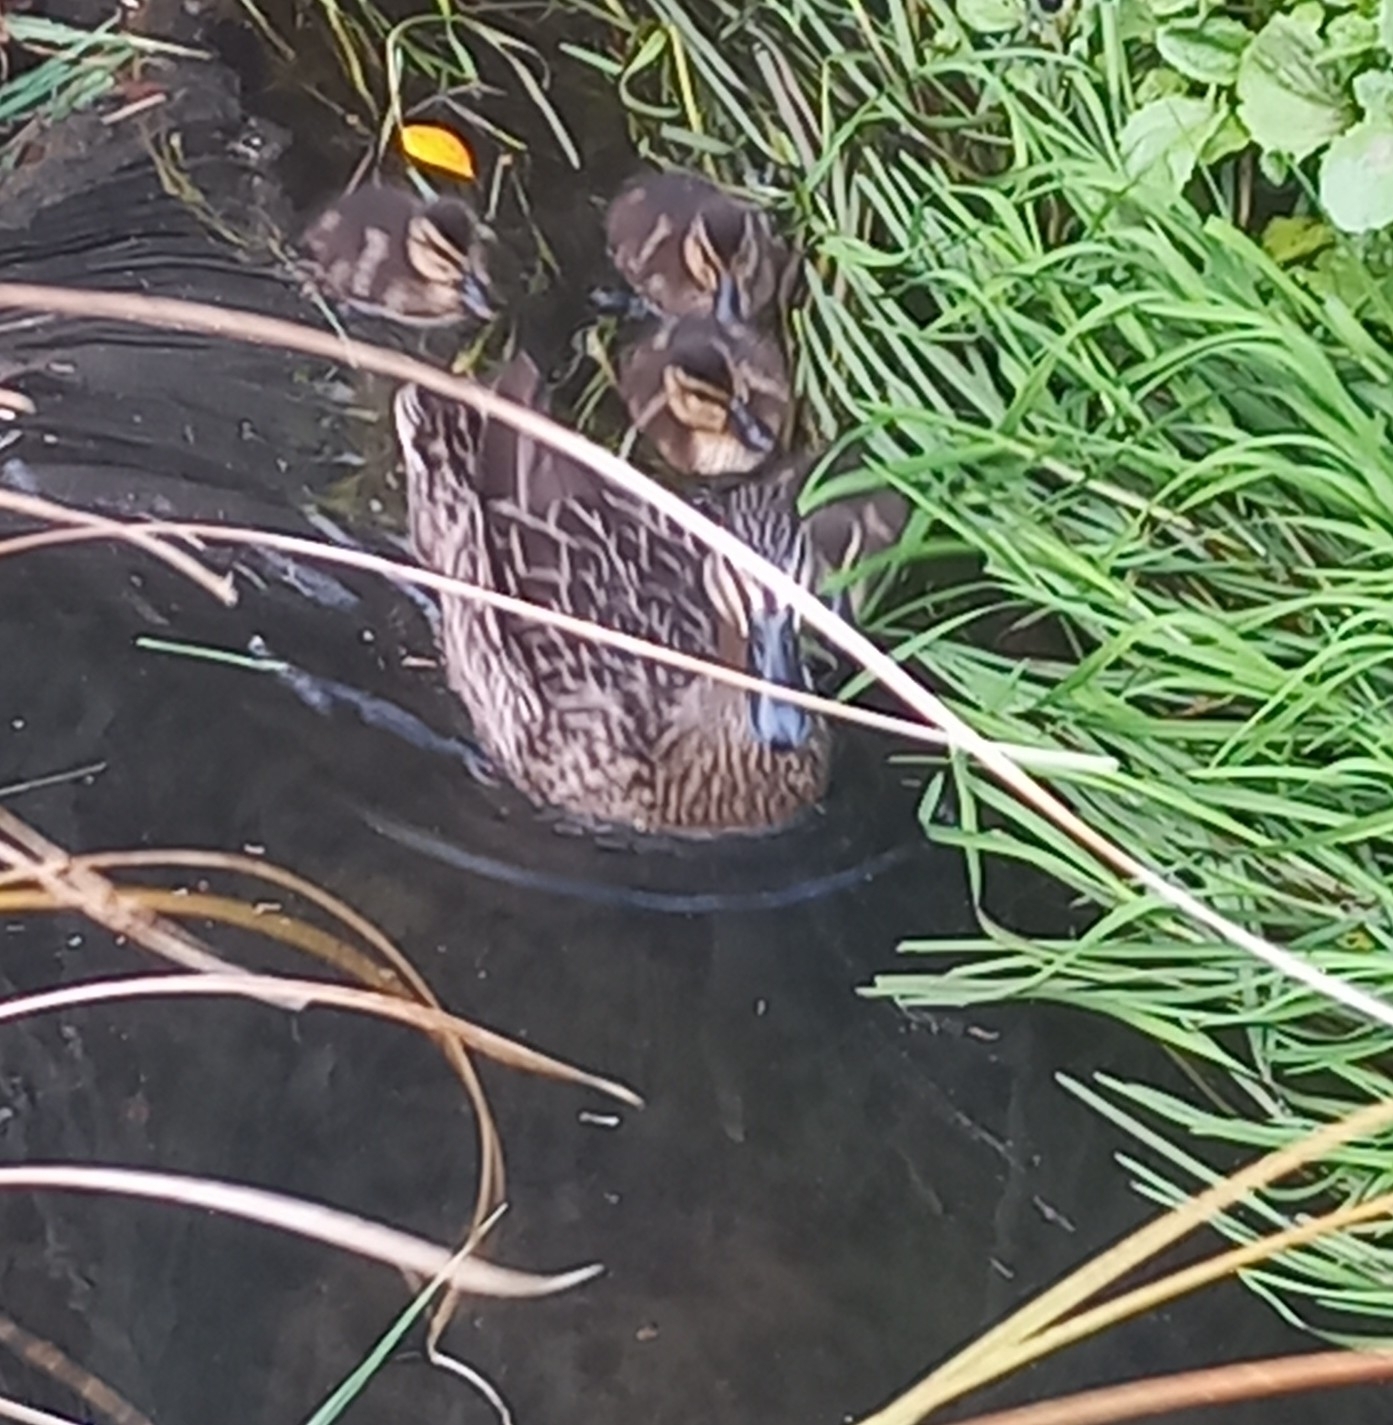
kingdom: Animalia
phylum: Chordata
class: Aves
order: Anseriformes
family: Anatidae
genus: Anas
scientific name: Anas platyrhynchos
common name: Mallard
